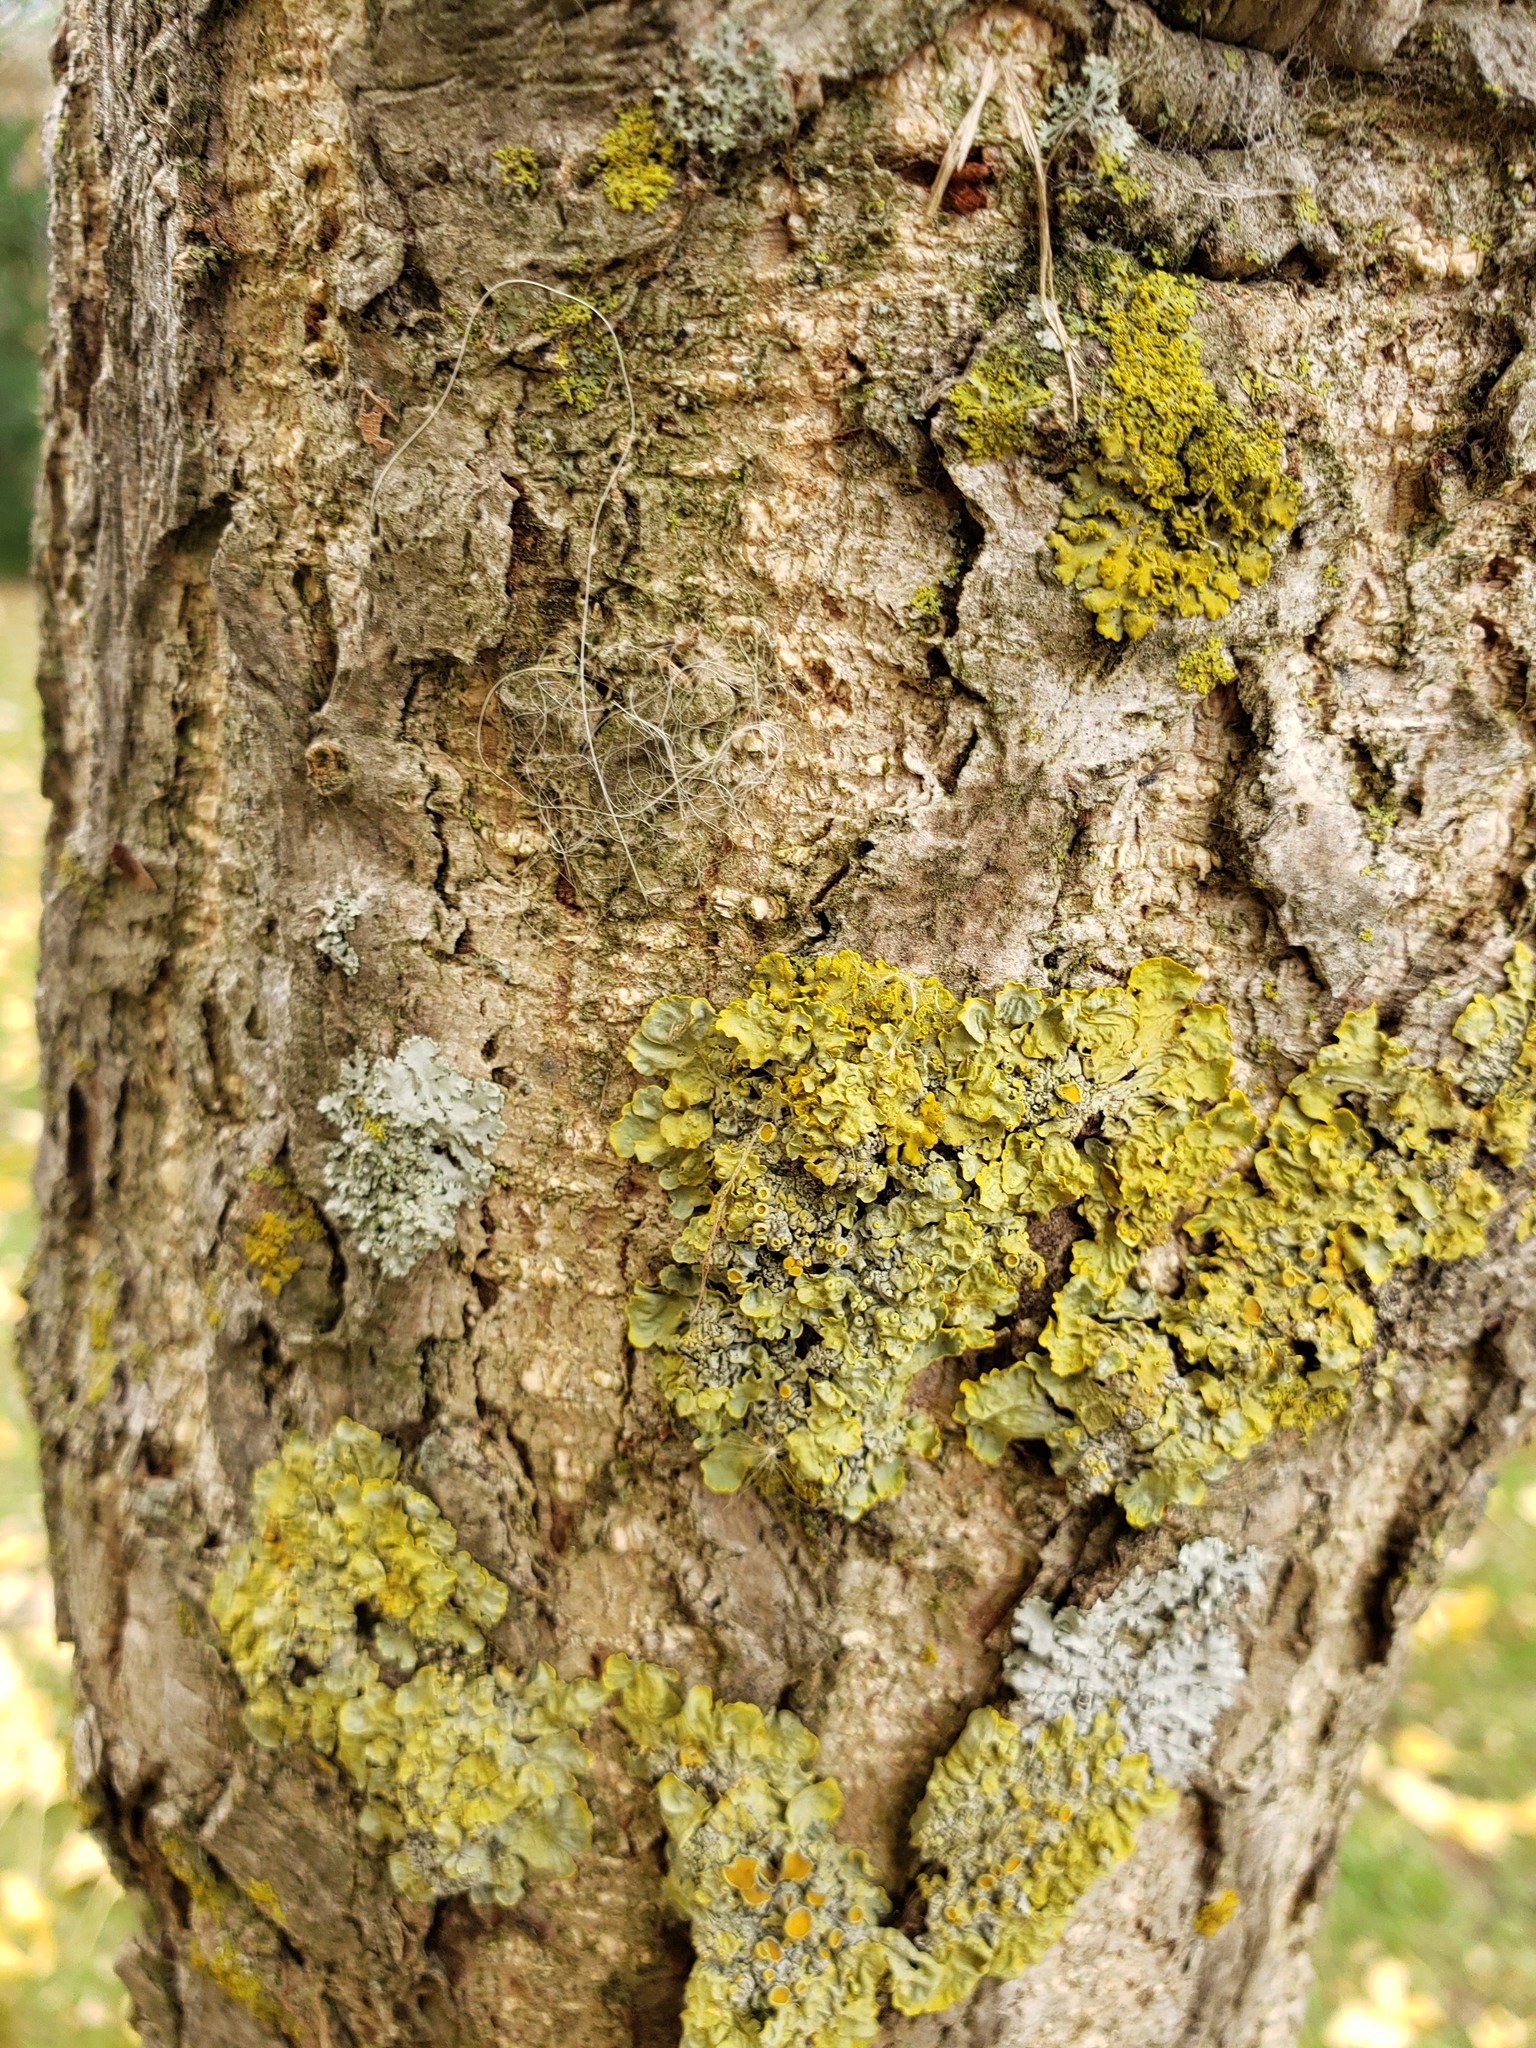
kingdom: Fungi
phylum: Ascomycota
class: Lecanoromycetes
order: Teloschistales
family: Teloschistaceae
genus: Xanthoria
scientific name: Xanthoria parietina
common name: Common orange lichen
